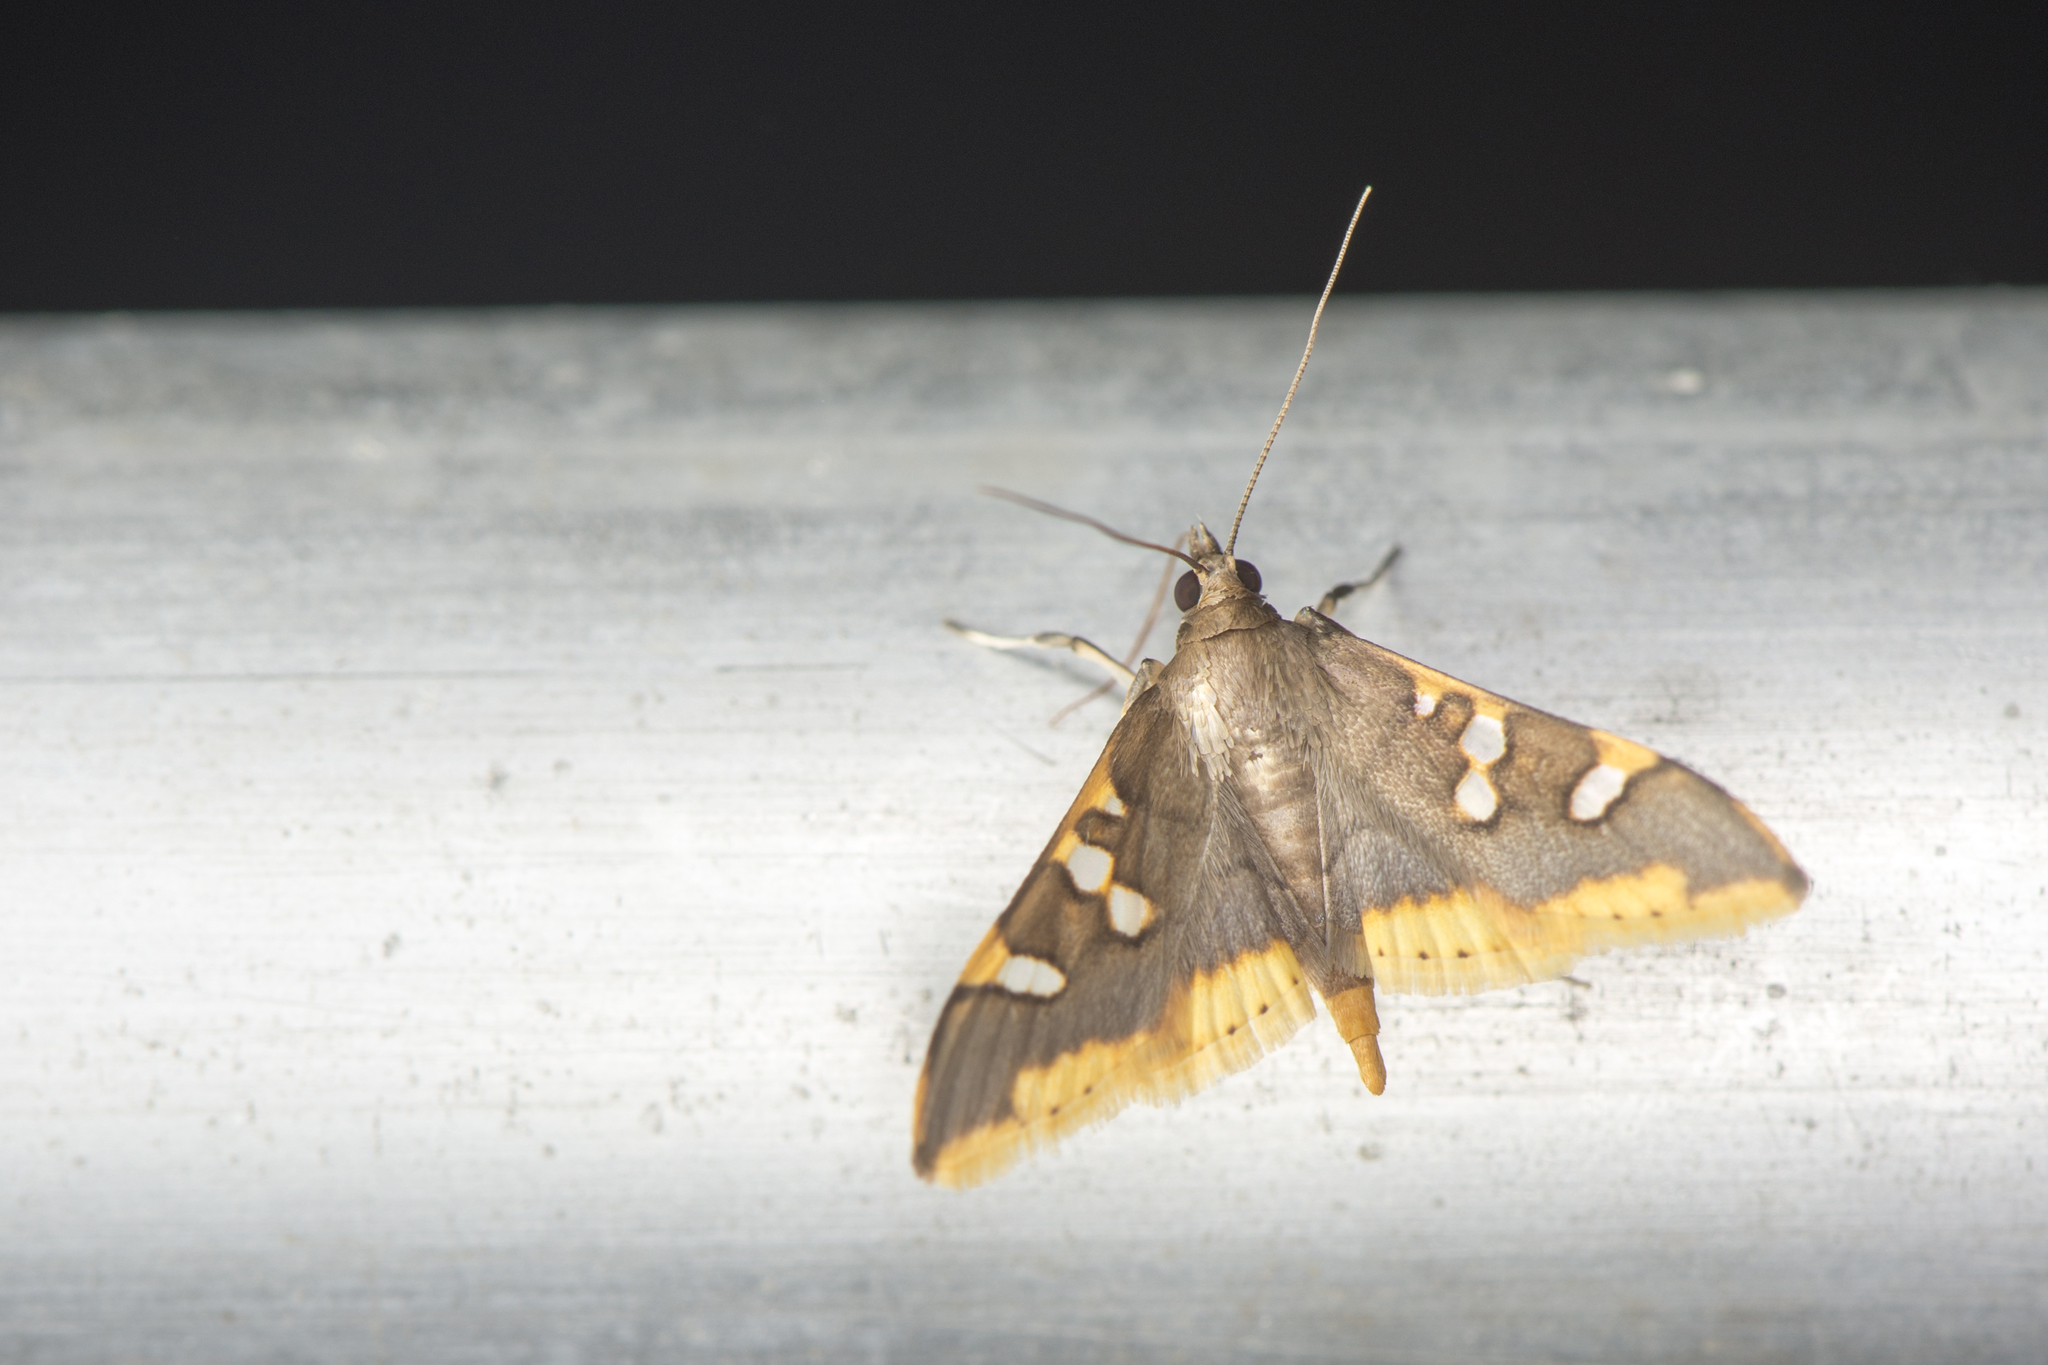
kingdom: Animalia
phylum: Arthropoda
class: Insecta
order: Lepidoptera
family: Crambidae
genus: Prophantis
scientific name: Prophantis adusta
